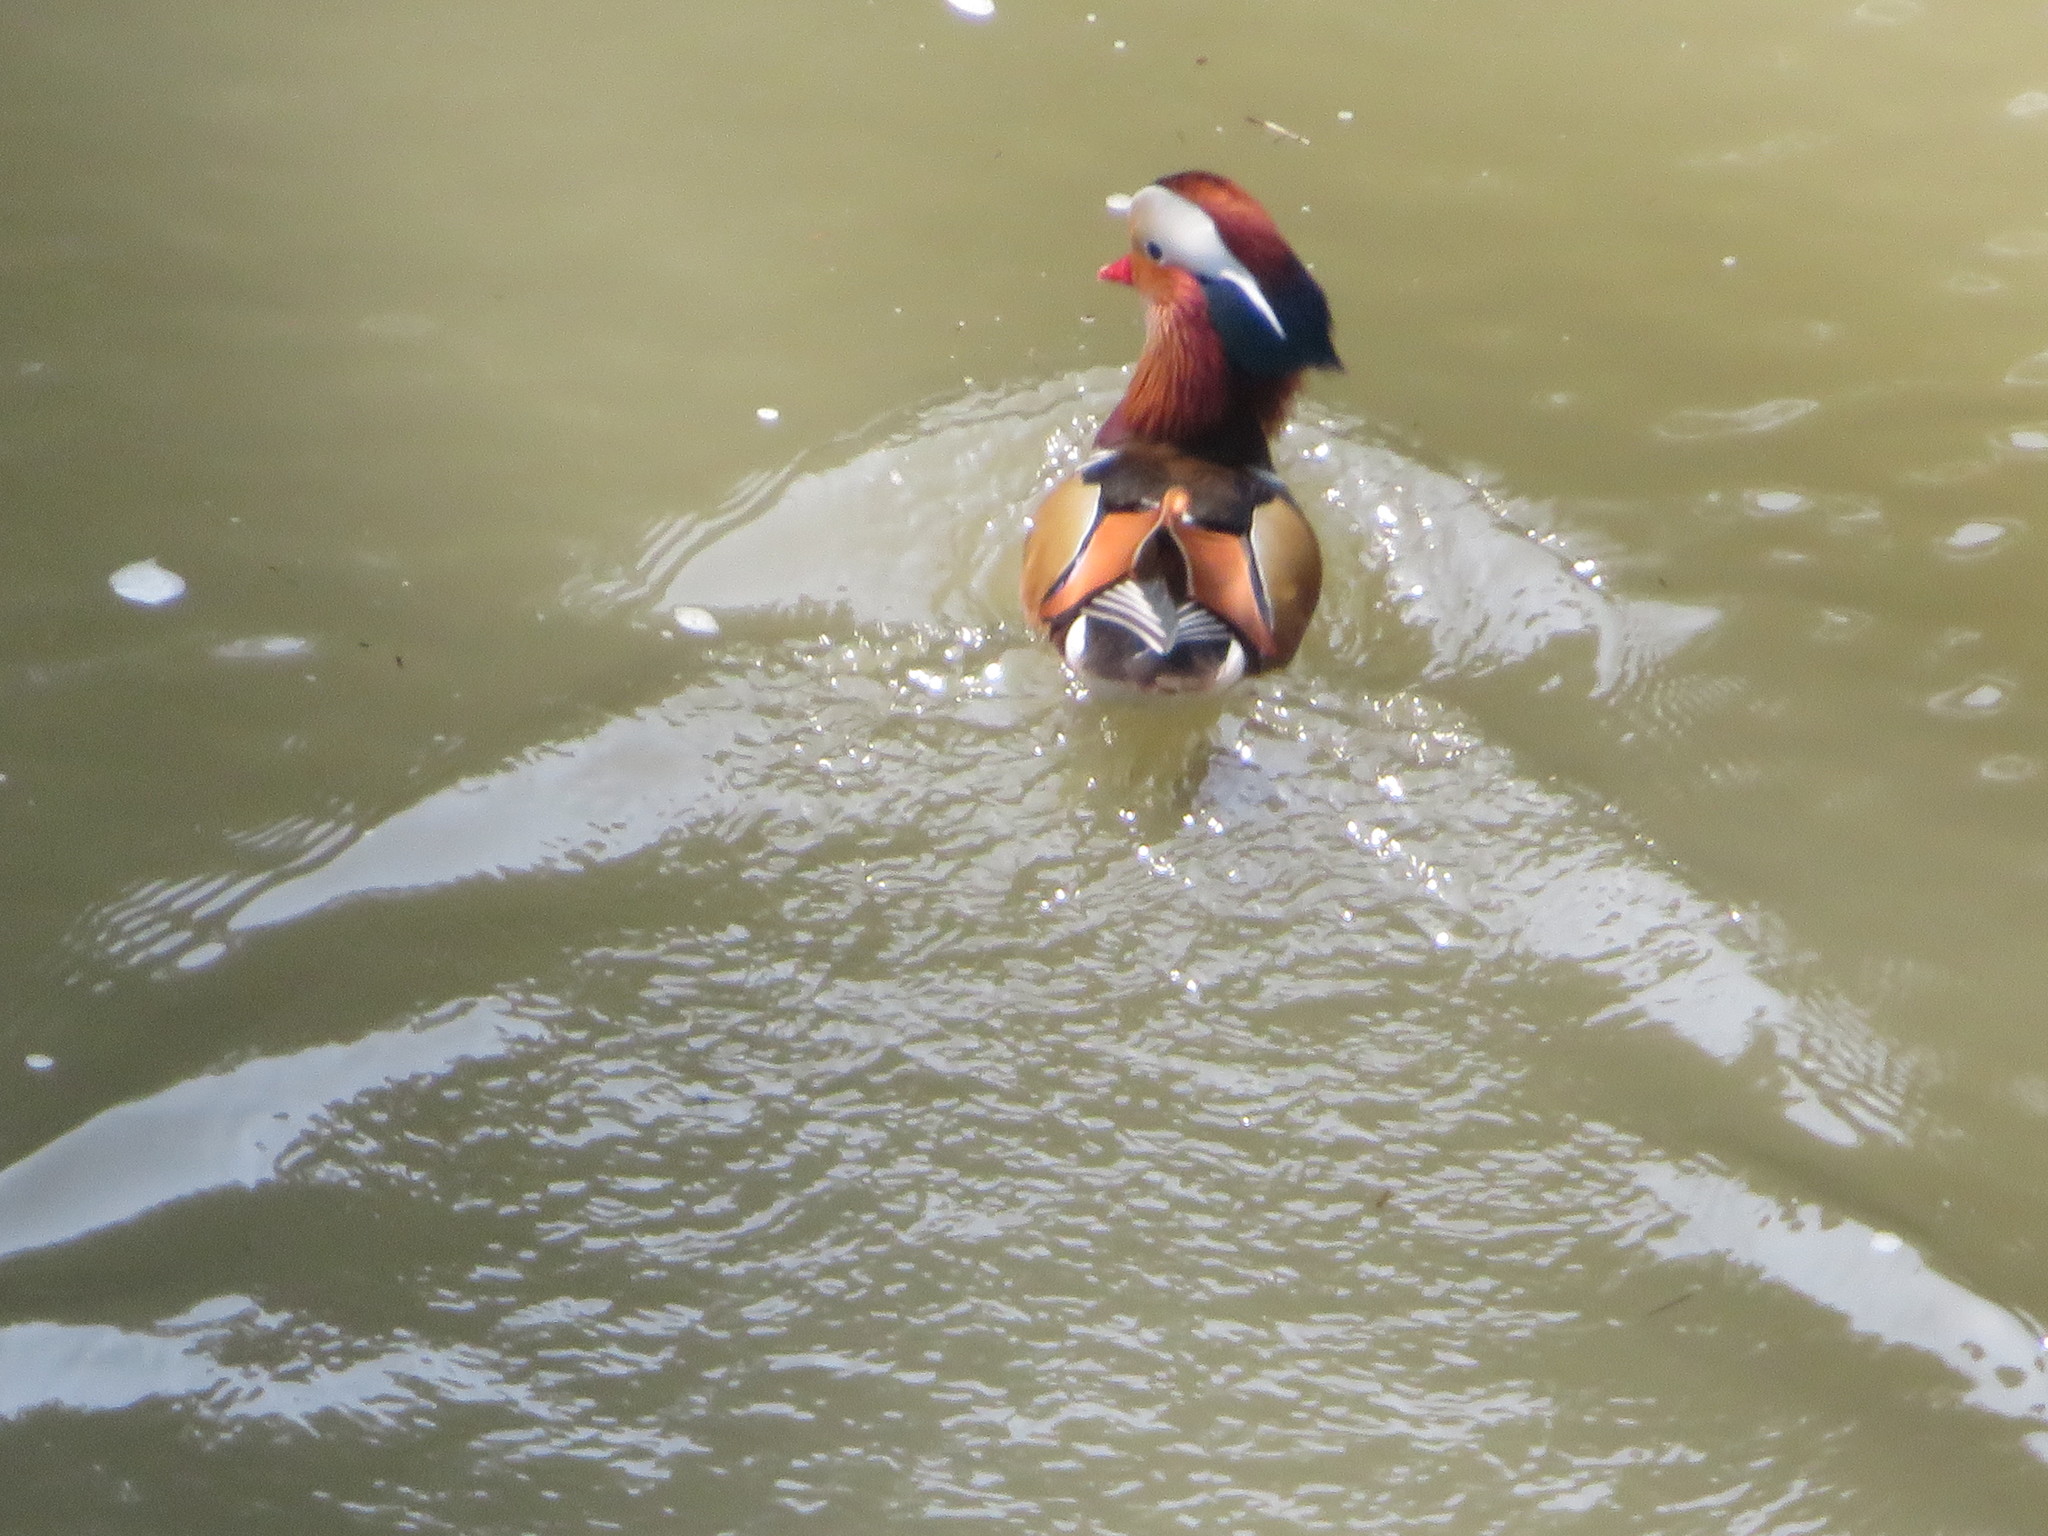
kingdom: Animalia
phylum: Chordata
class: Aves
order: Anseriformes
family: Anatidae
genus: Aix
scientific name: Aix galericulata
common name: Mandarin duck
